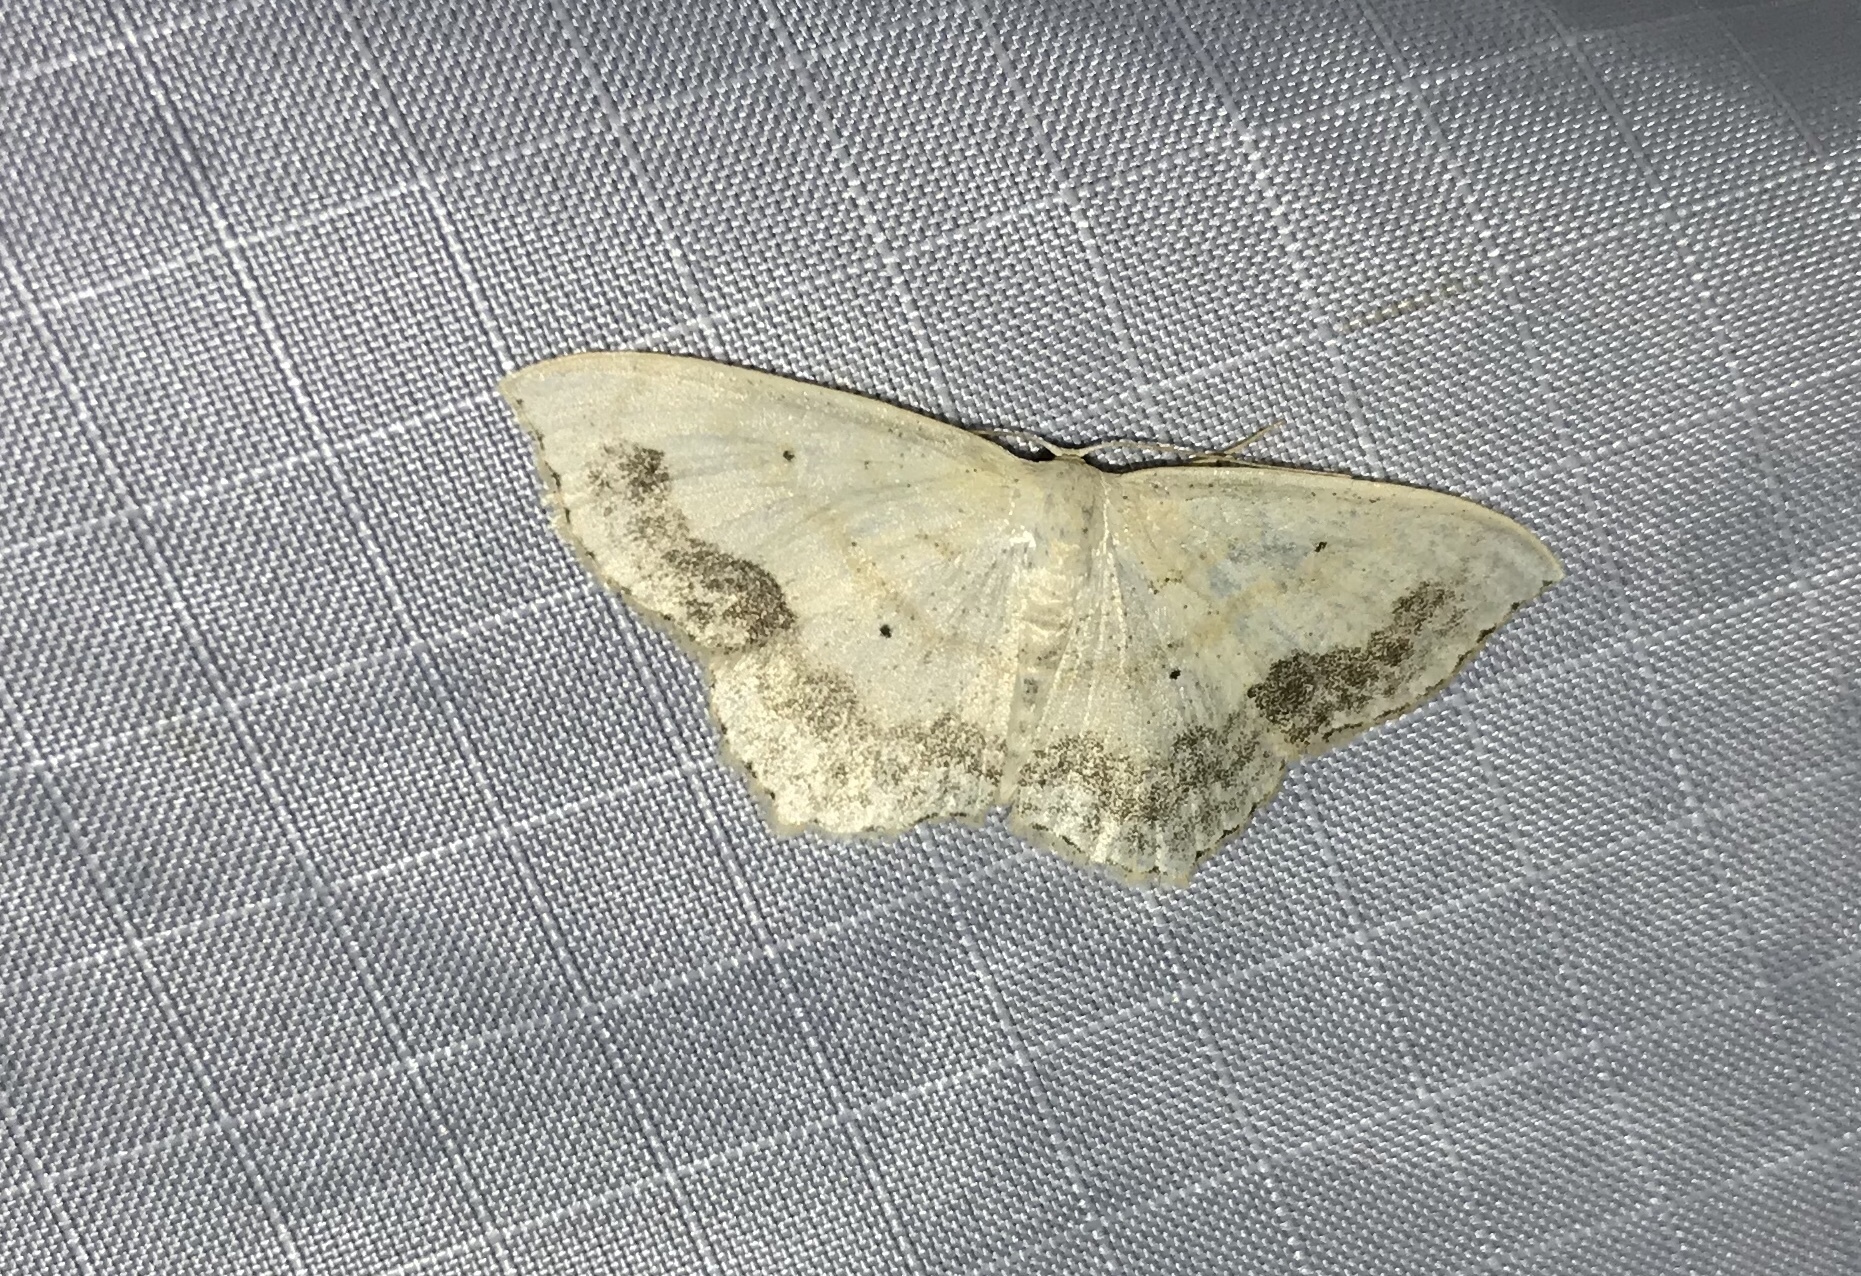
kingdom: Animalia
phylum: Arthropoda
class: Insecta
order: Lepidoptera
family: Geometridae
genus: Scopula
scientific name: Scopula limboundata
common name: Large lace border
